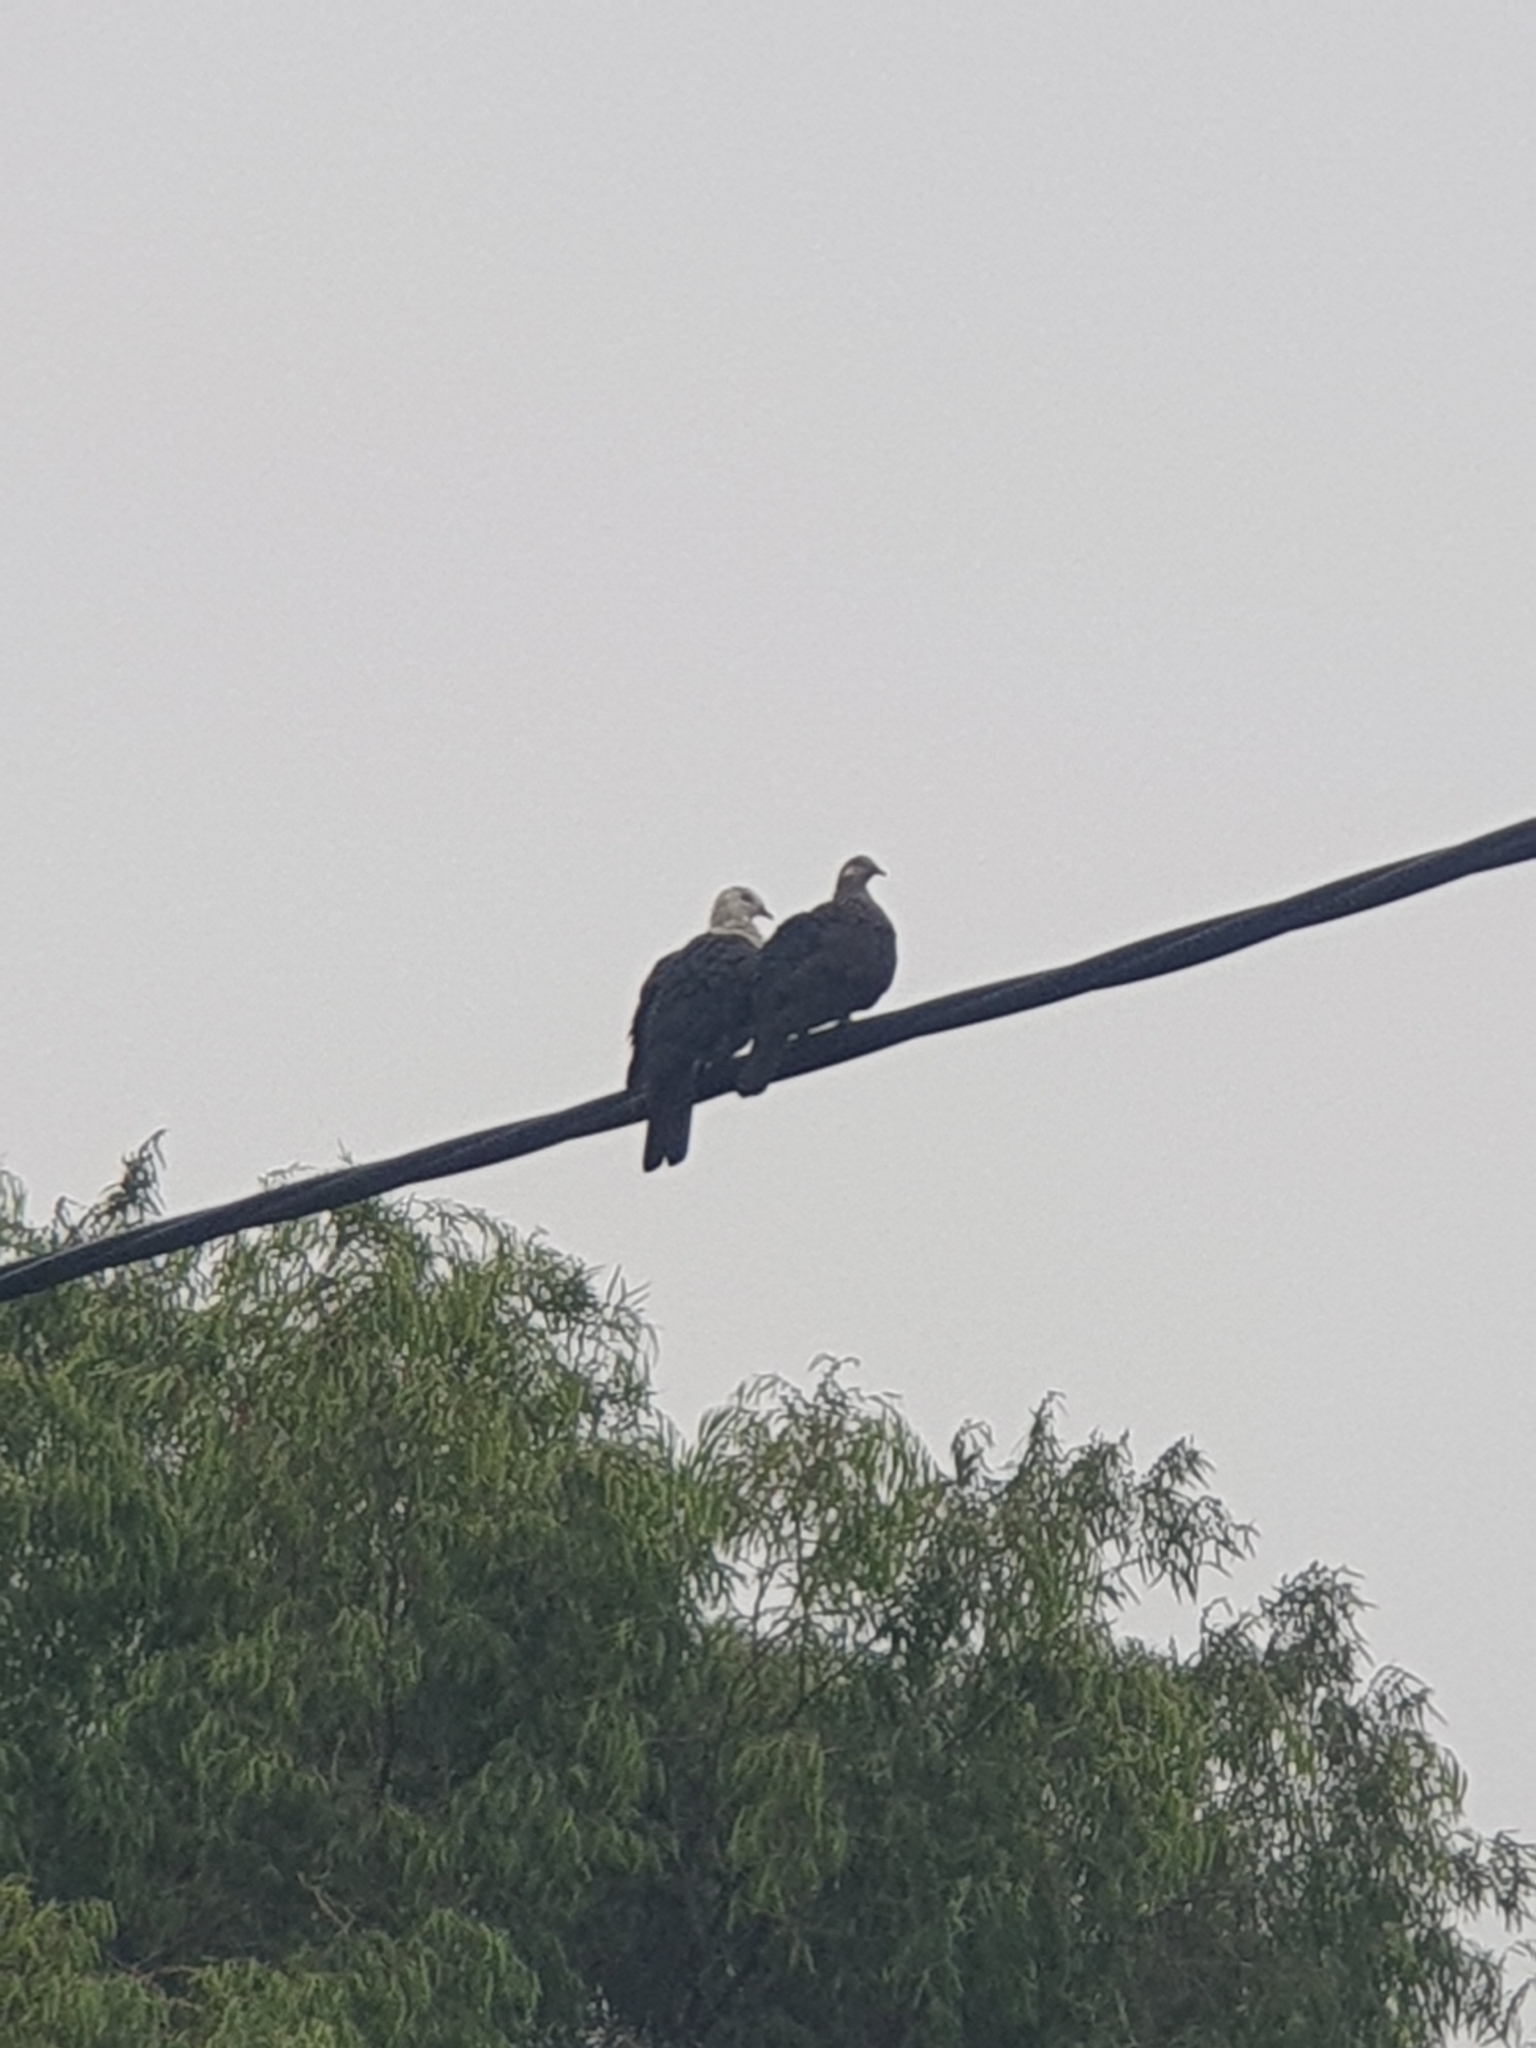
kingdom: Animalia
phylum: Chordata
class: Aves
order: Columbiformes
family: Columbidae
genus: Columba
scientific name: Columba leucomela
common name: White-headed pigeon
